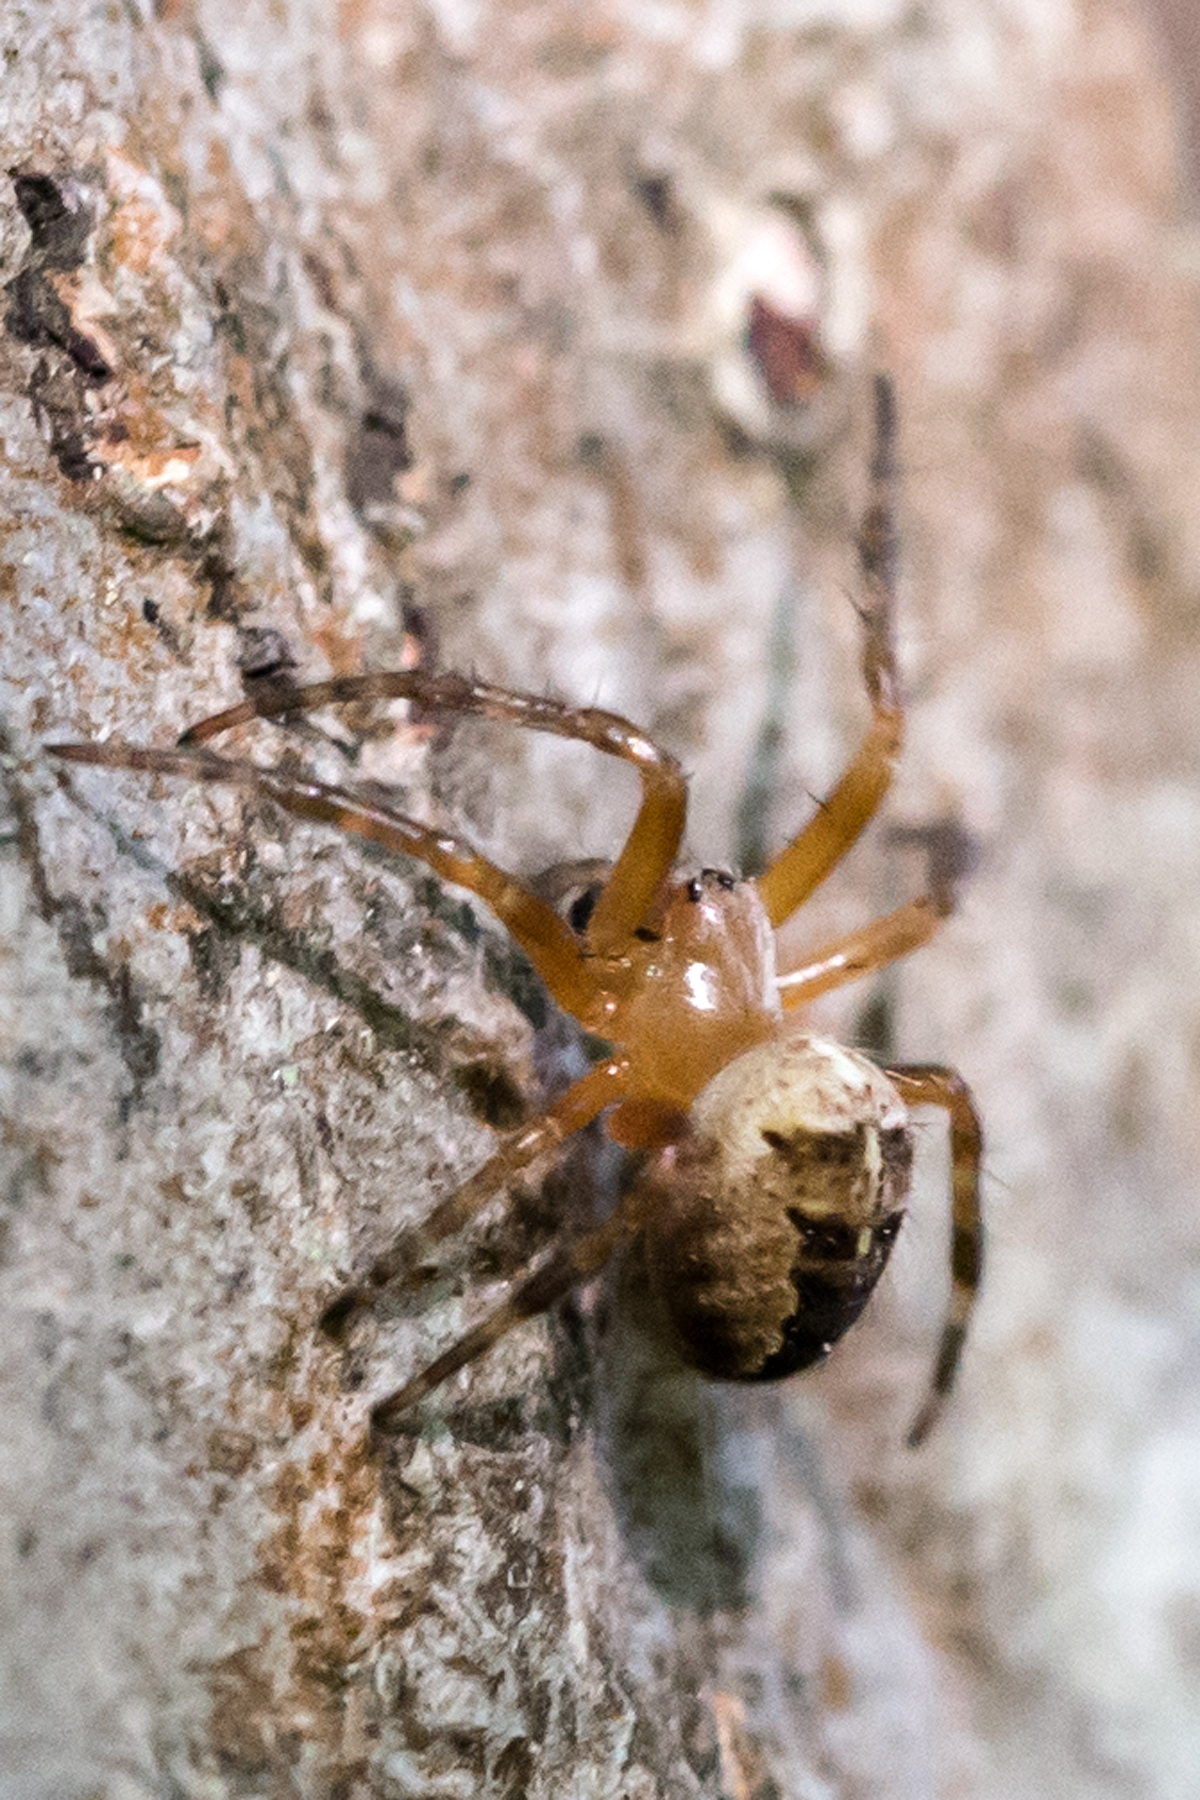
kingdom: Animalia
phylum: Arthropoda
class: Arachnida
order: Araneae
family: Araneidae
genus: Araneus
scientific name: Araneus diadematus
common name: Cross orbweaver
